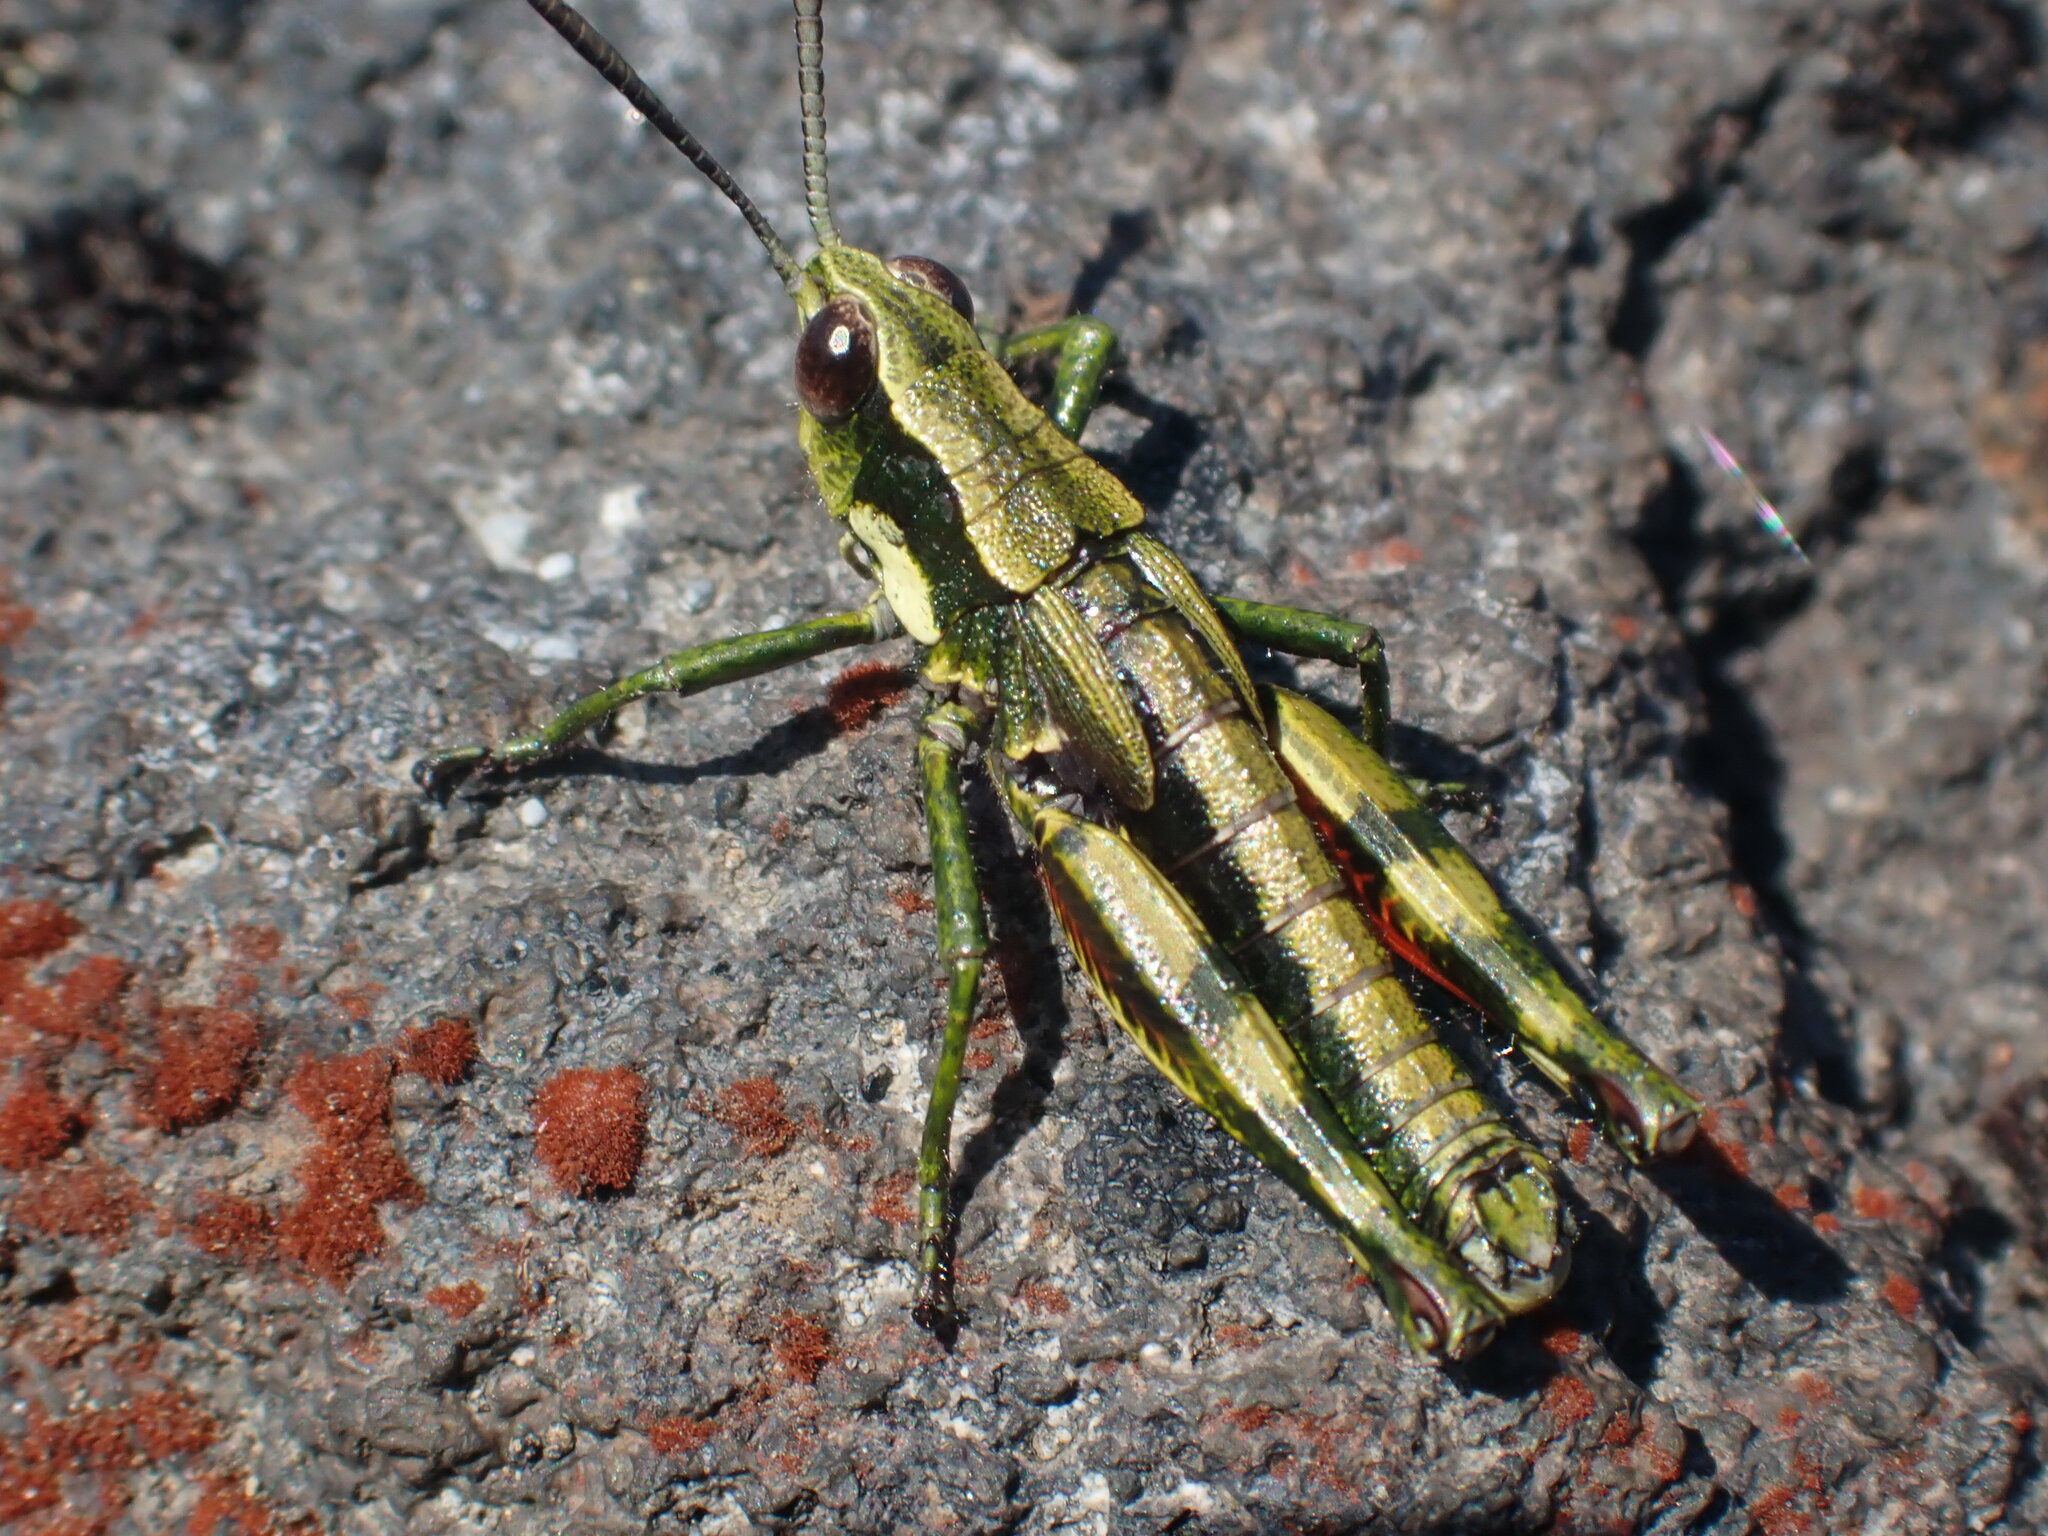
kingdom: Animalia
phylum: Arthropoda
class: Insecta
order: Orthoptera
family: Acrididae
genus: Sigaus
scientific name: Sigaus piliferus
